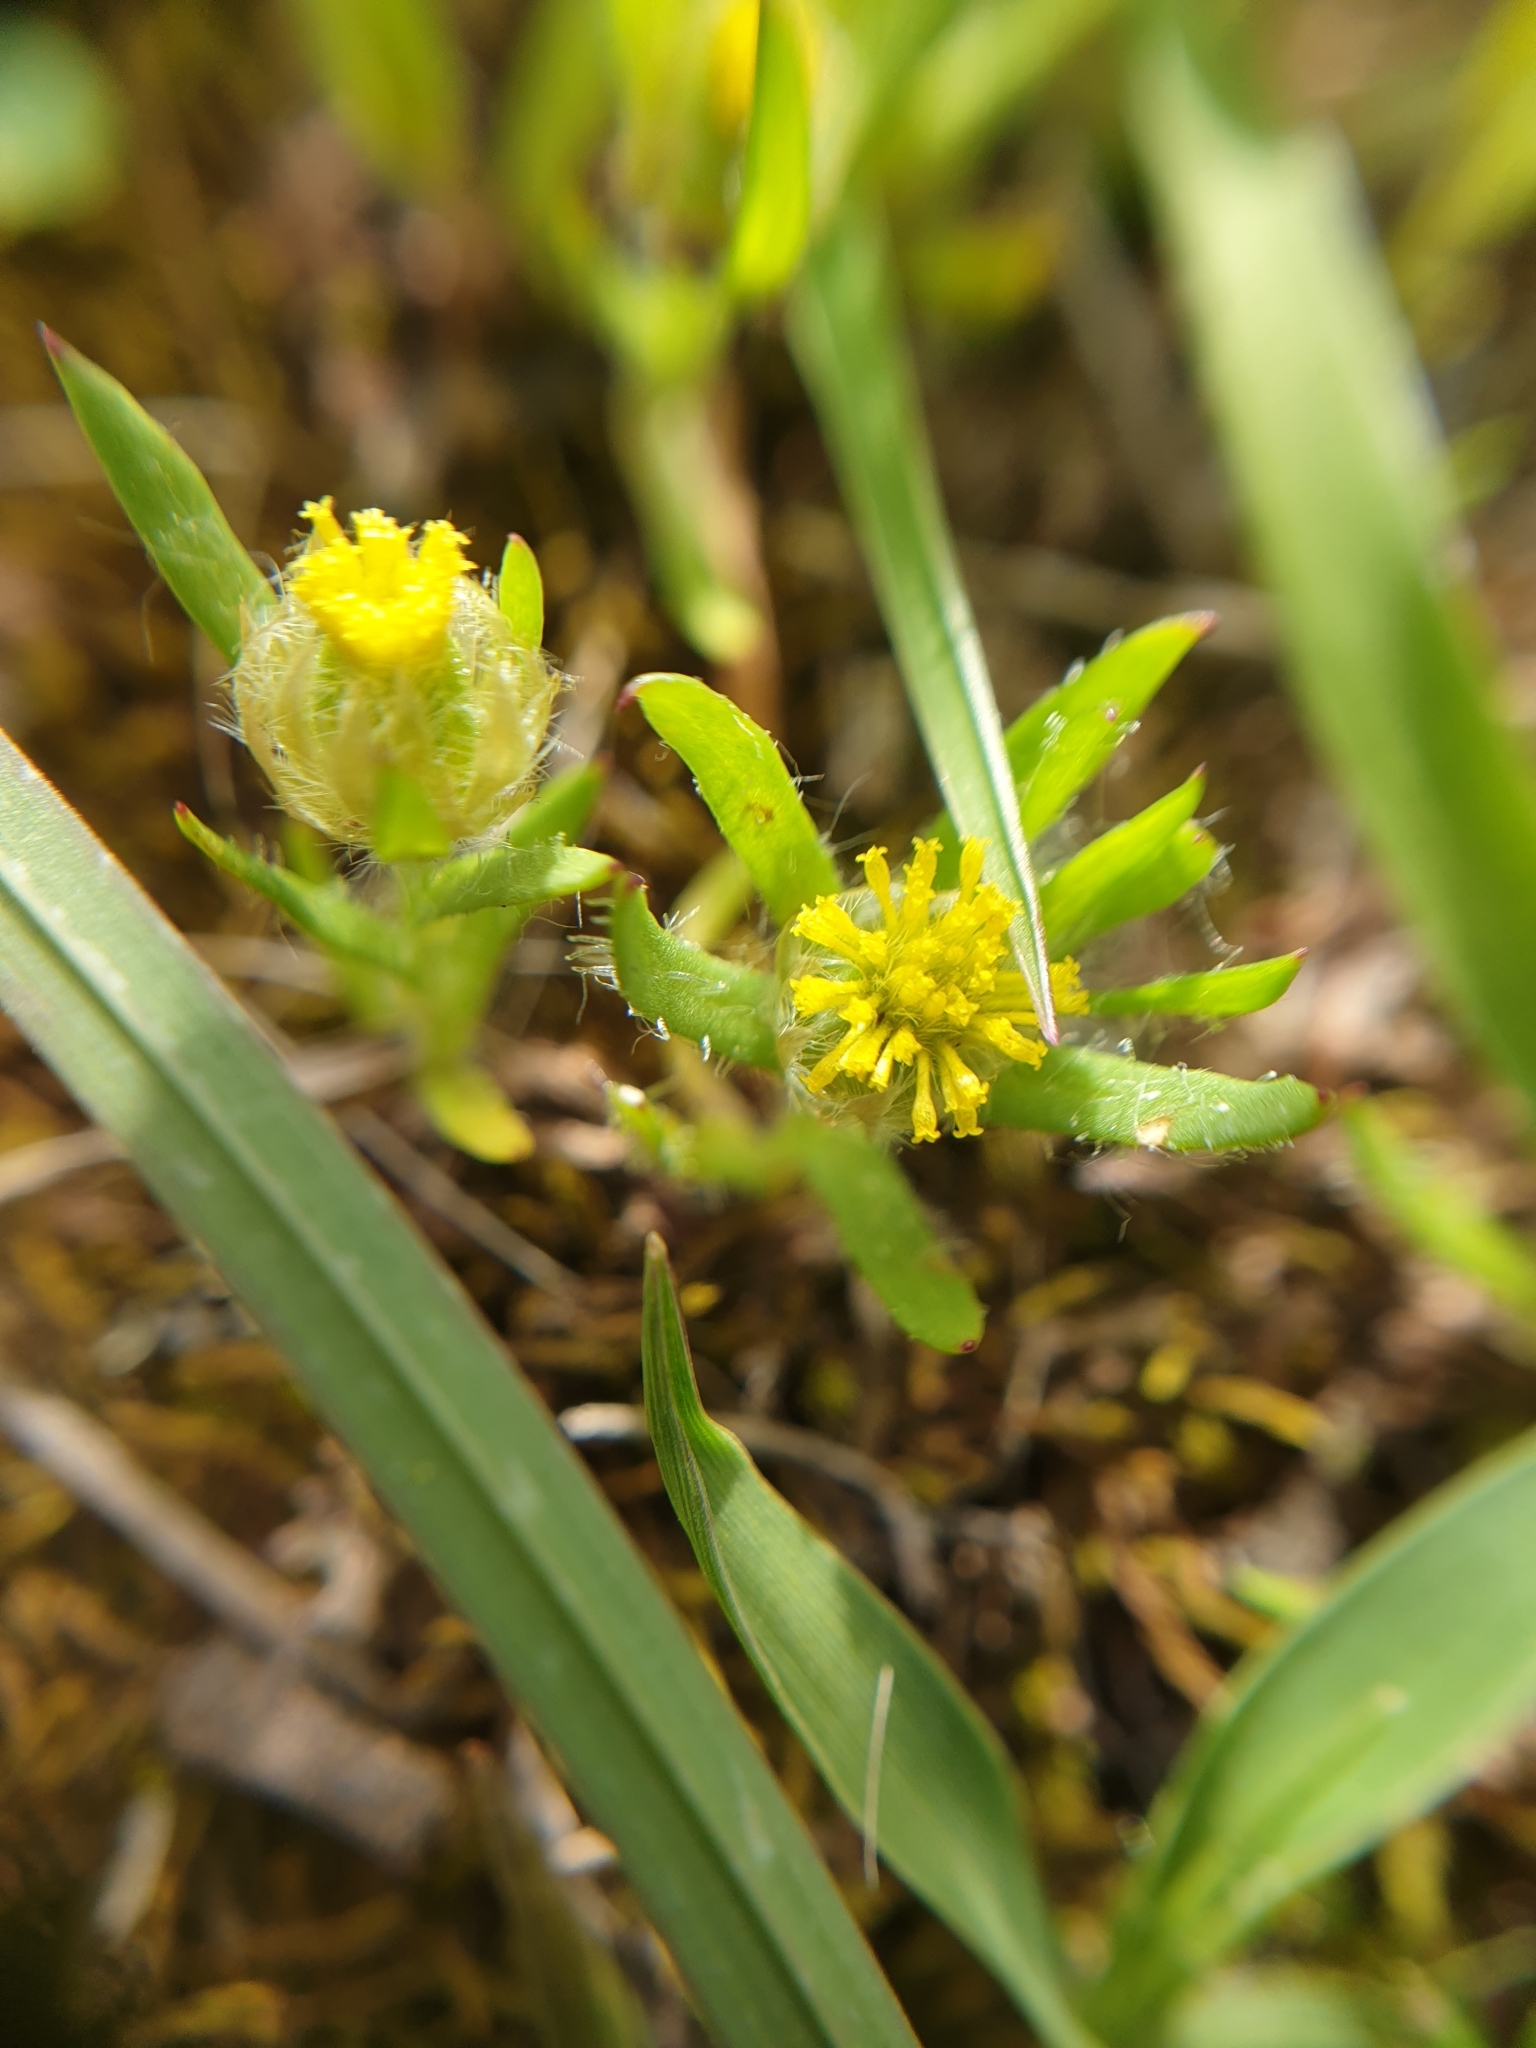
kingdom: Plantae
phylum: Tracheophyta
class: Magnoliopsida
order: Asterales
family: Asteraceae
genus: Triptilodiscus
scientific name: Triptilodiscus pygmaeus
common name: Common sunray
